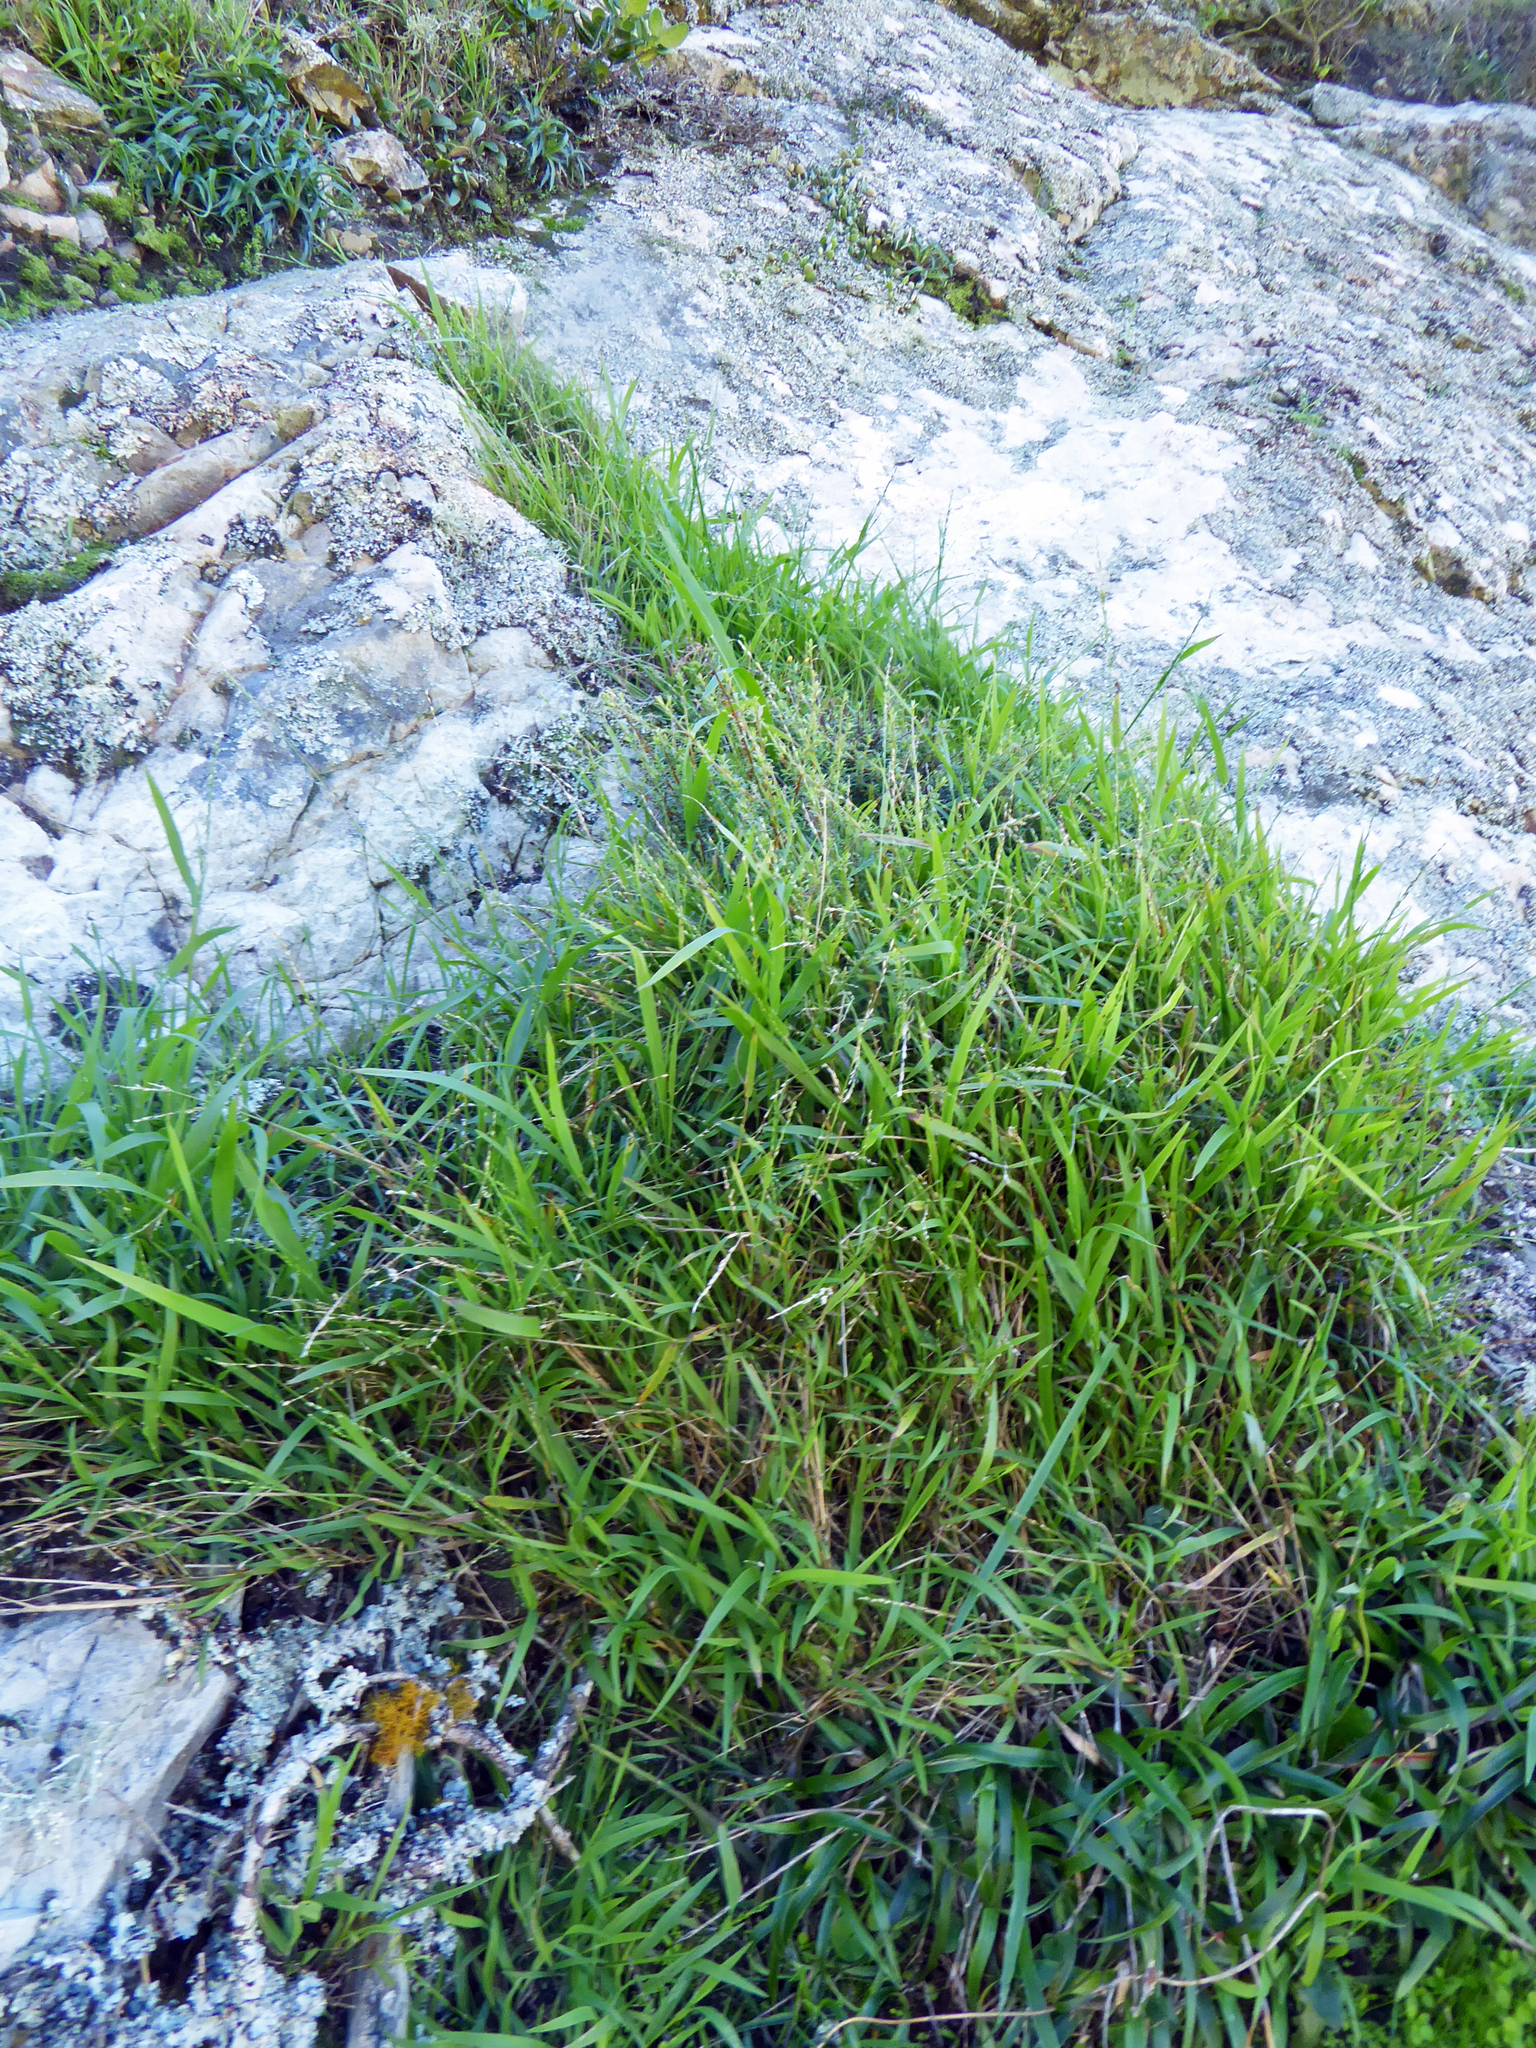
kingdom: Plantae
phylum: Tracheophyta
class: Liliopsida
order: Poales
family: Poaceae
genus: Ehrharta
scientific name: Ehrharta erecta
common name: Panic veldtgrass
